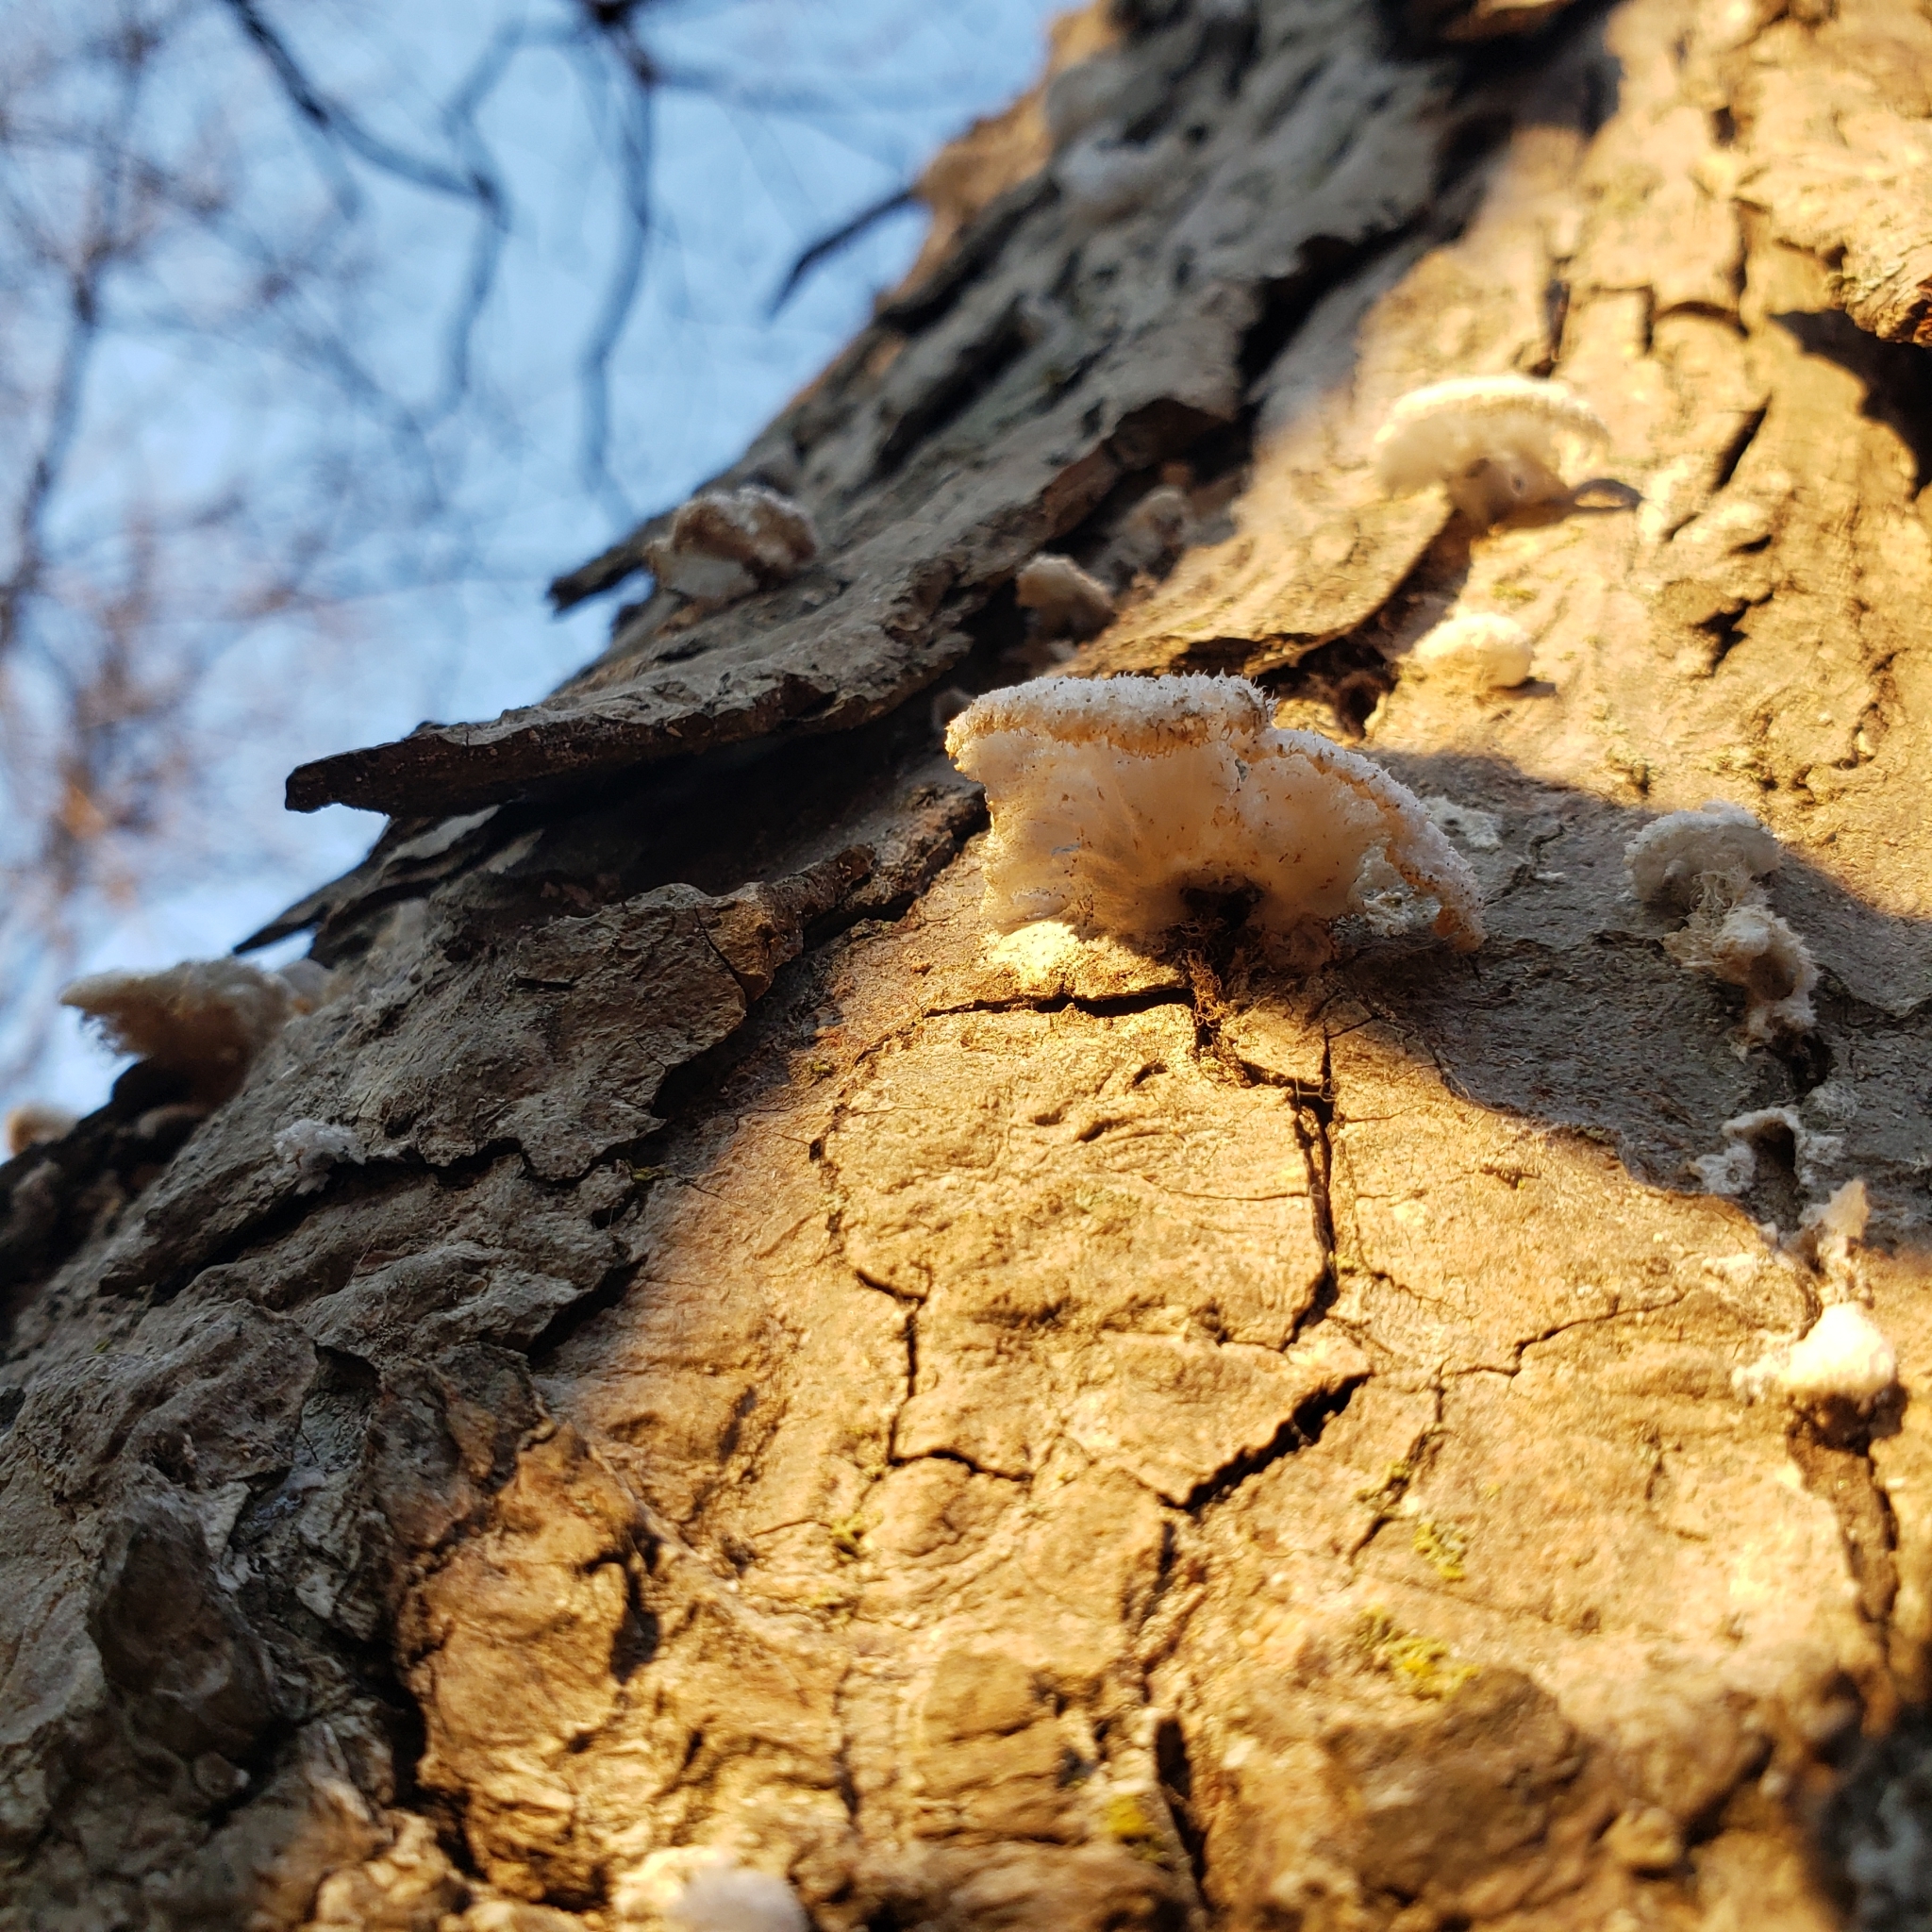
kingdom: Fungi
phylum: Basidiomycota
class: Agaricomycetes
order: Agaricales
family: Schizophyllaceae
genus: Schizophyllum
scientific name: Schizophyllum commune
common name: Common porecrust
